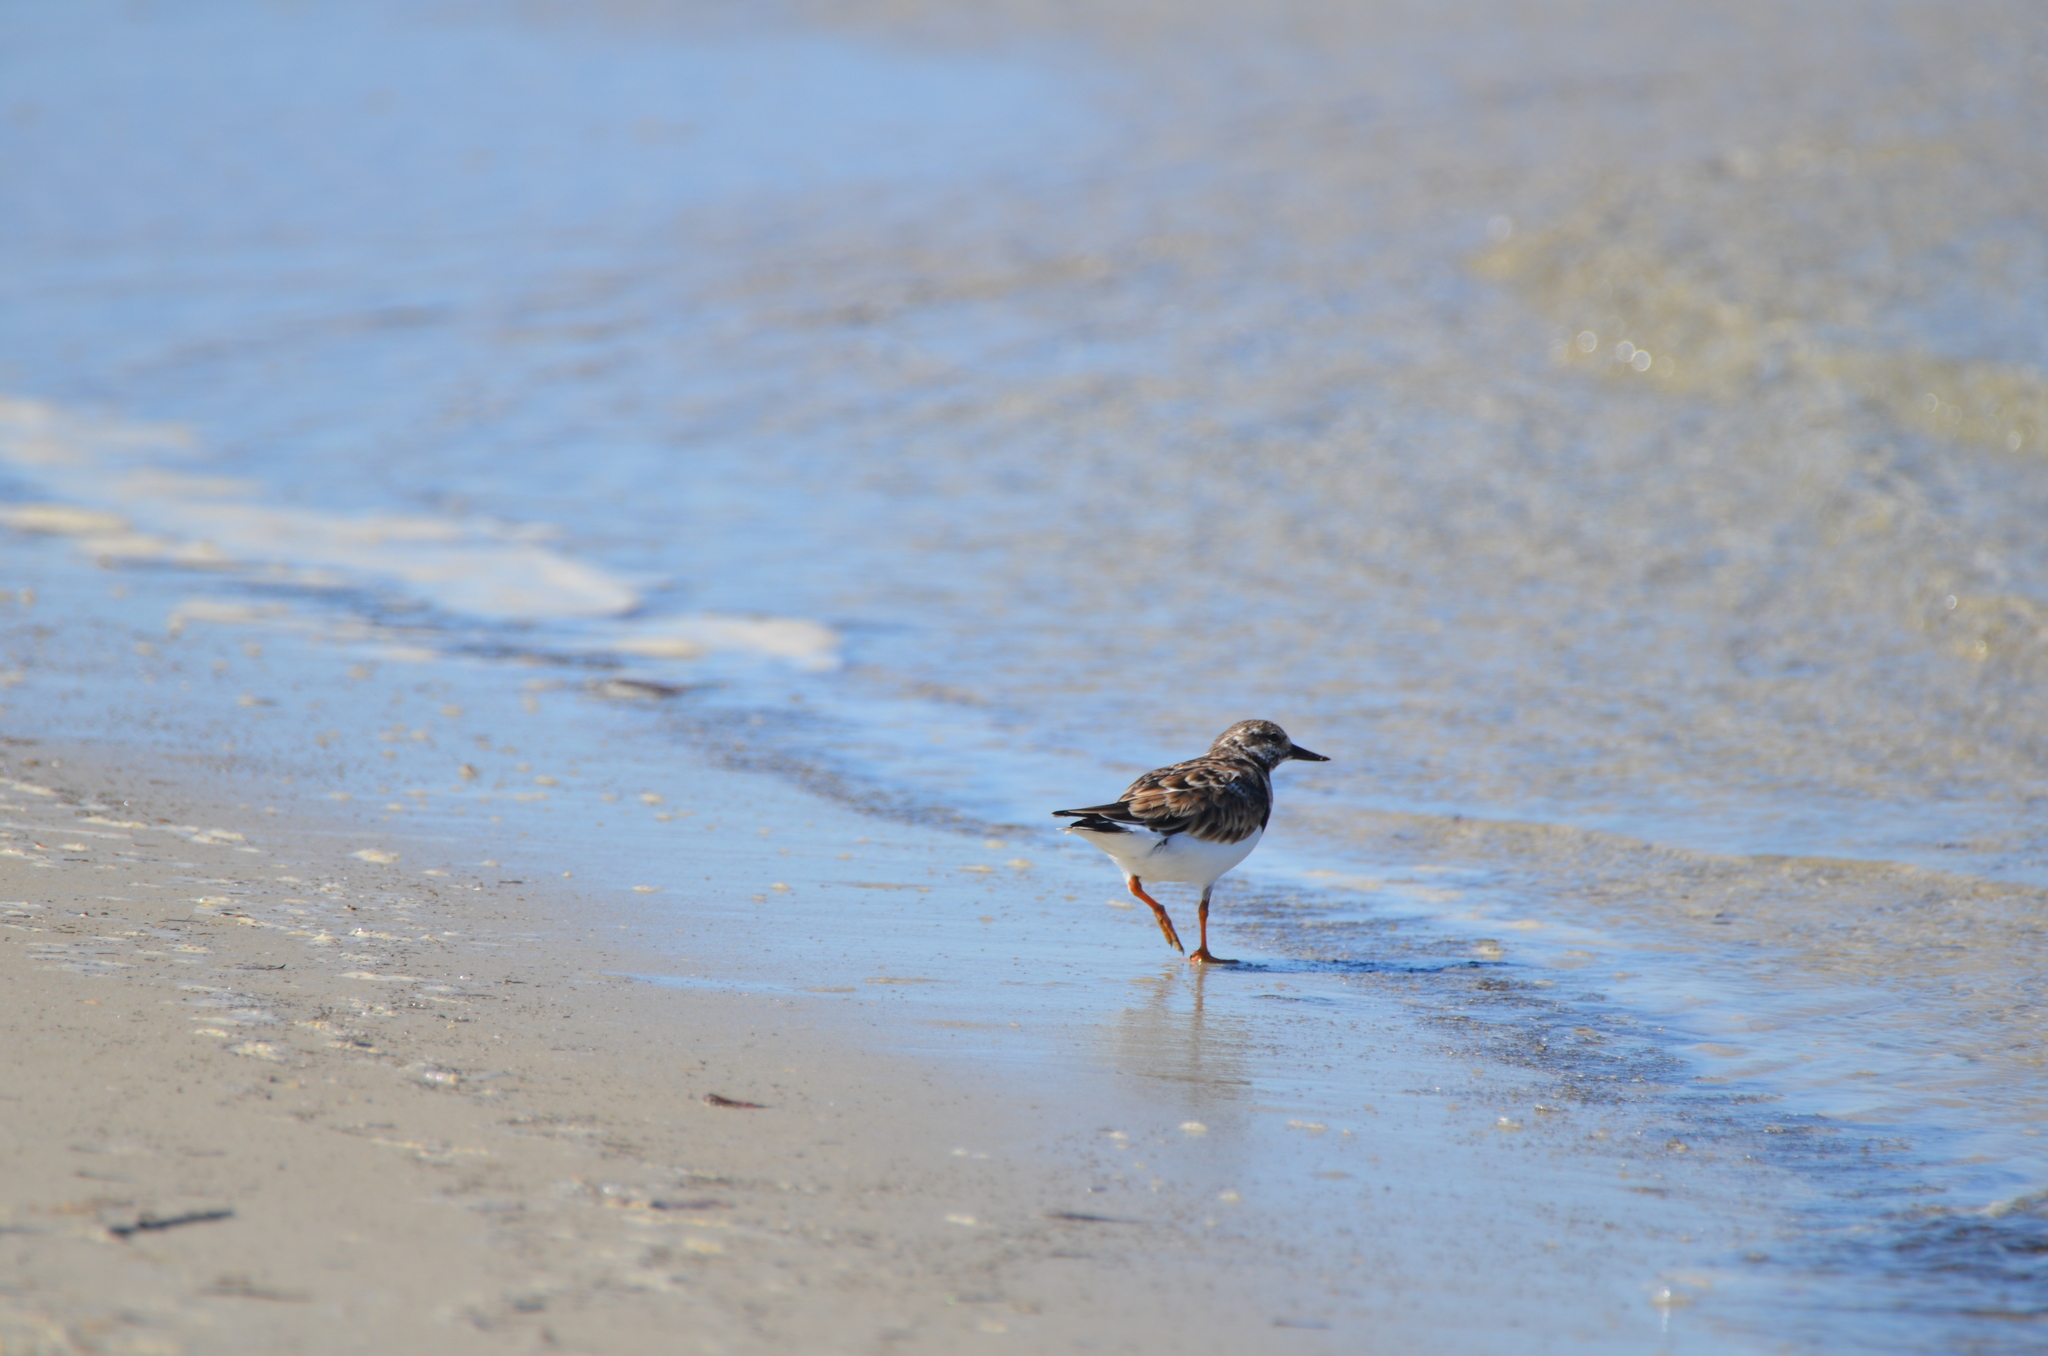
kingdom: Animalia
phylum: Chordata
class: Aves
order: Charadriiformes
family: Scolopacidae
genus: Arenaria
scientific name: Arenaria interpres
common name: Ruddy turnstone
